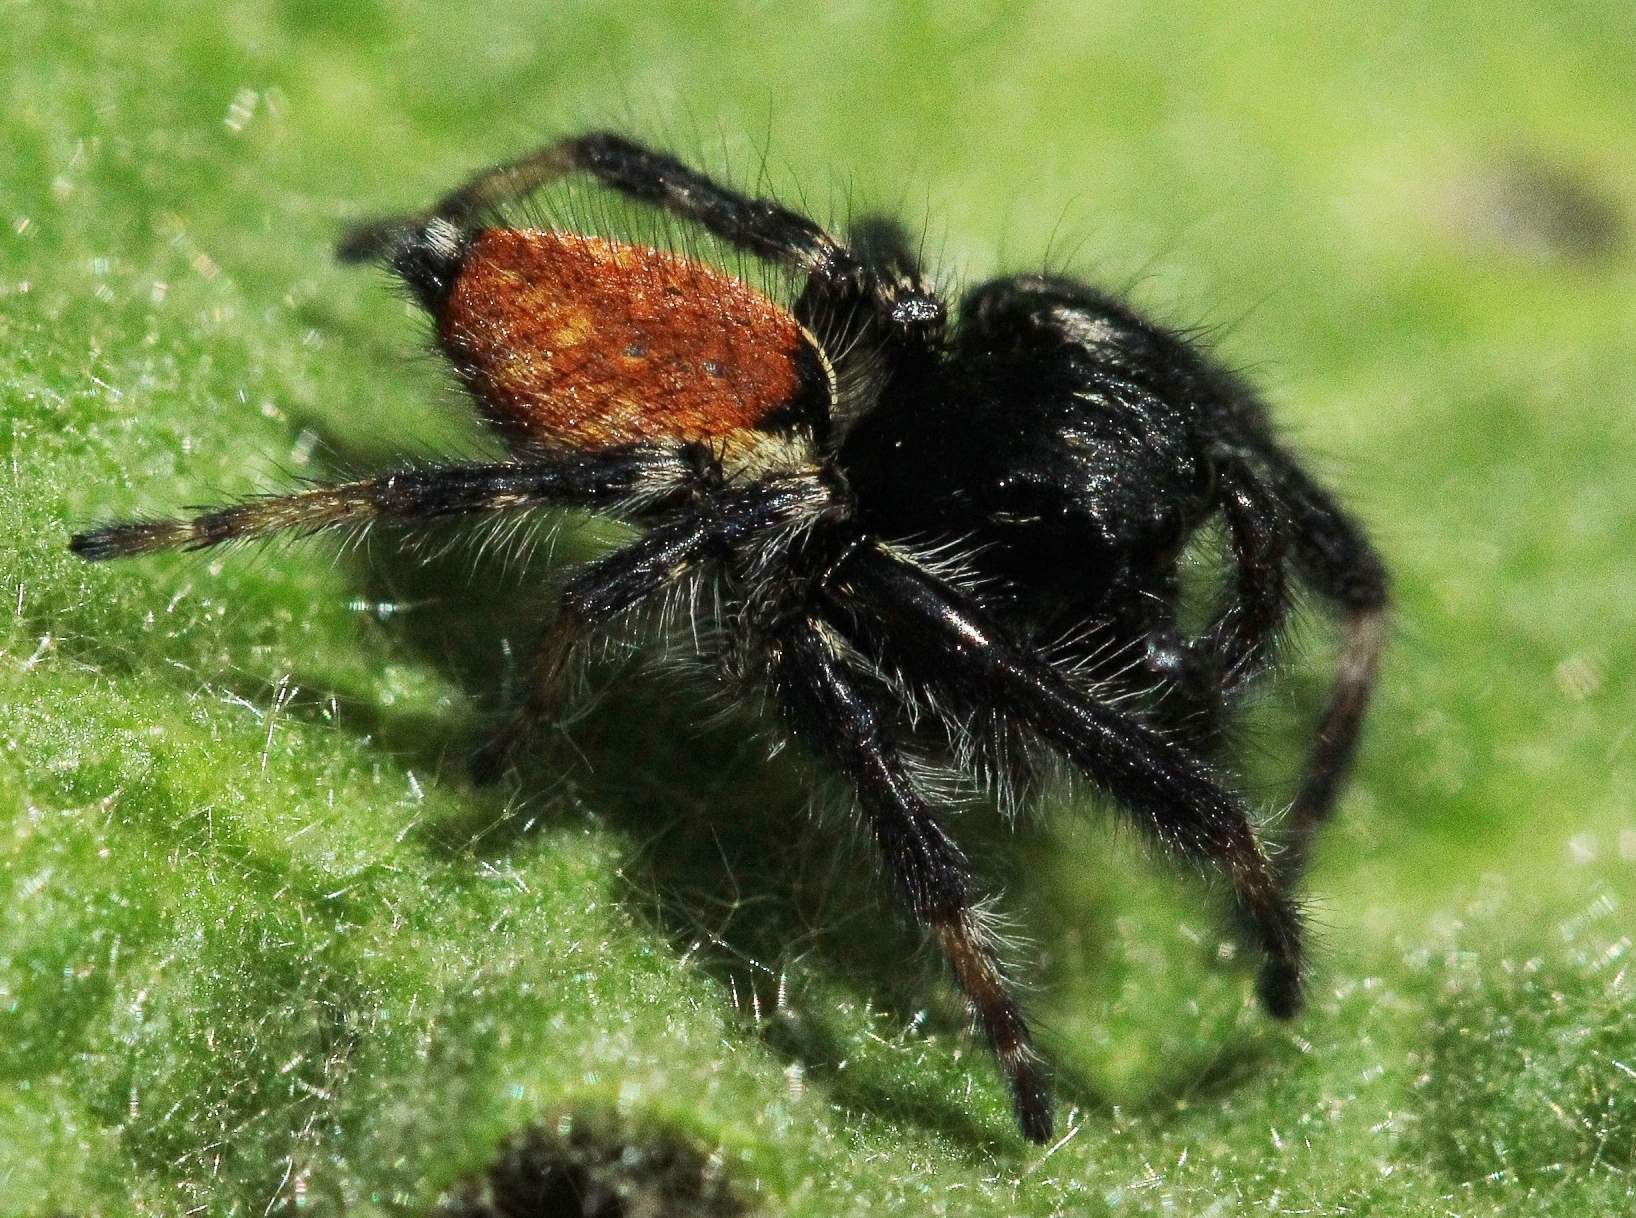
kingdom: Animalia
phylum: Arthropoda
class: Arachnida
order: Araneae
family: Salticidae
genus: Carrhotus
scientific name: Carrhotus xanthogramma
